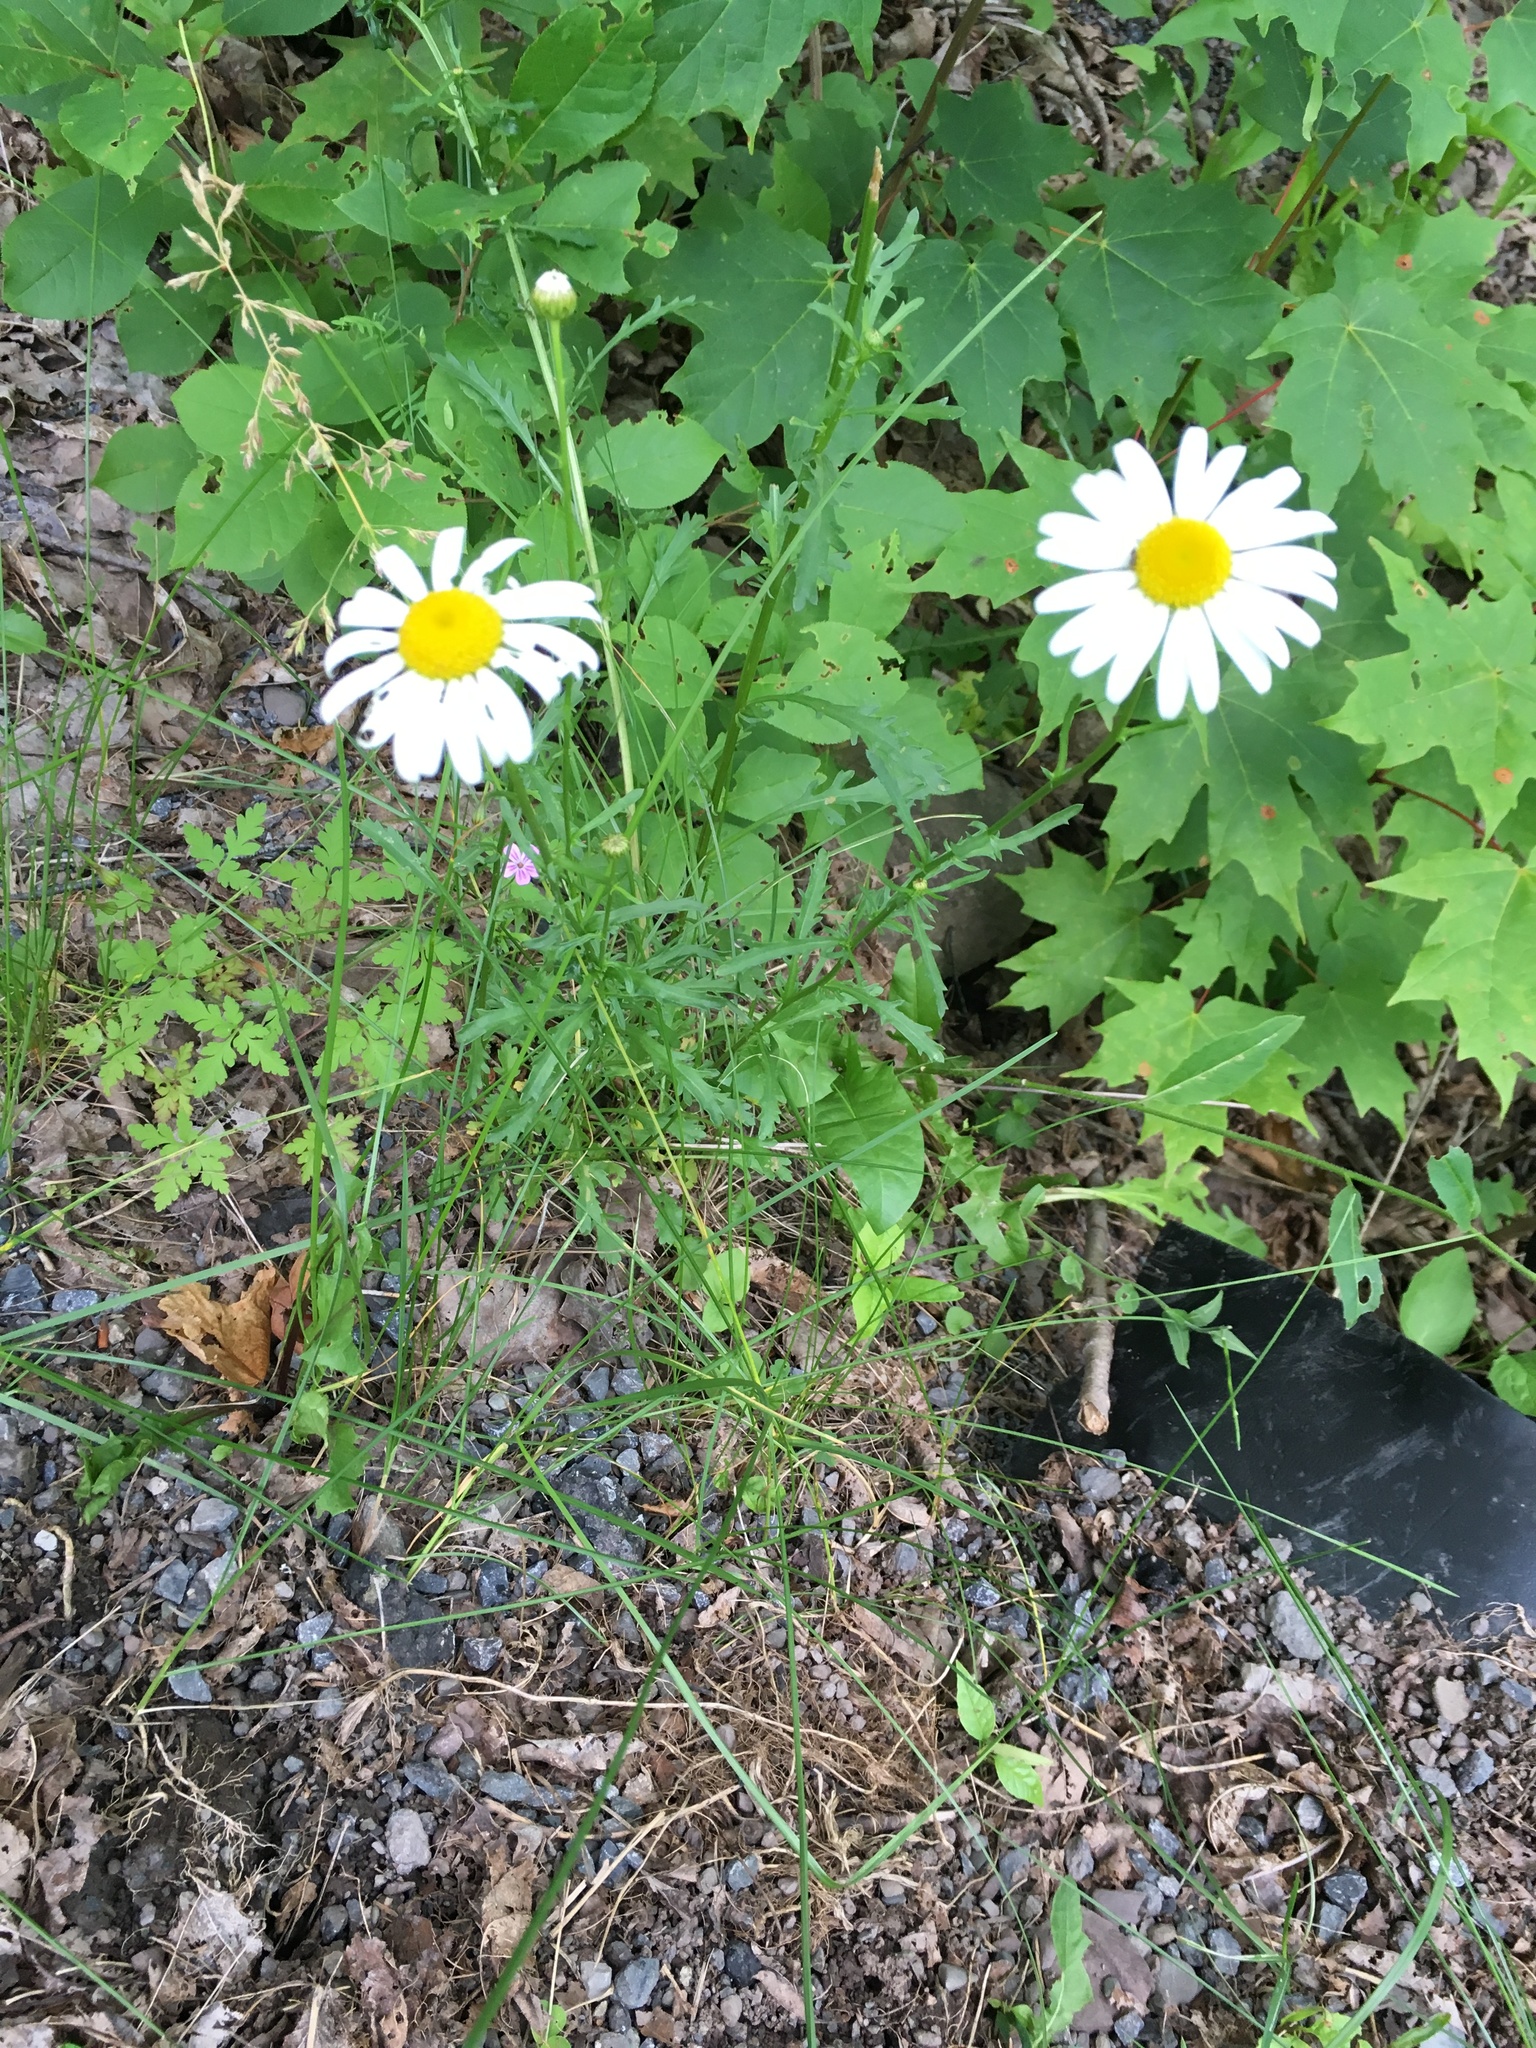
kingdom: Plantae
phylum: Tracheophyta
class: Magnoliopsida
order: Asterales
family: Asteraceae
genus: Leucanthemum
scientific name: Leucanthemum vulgare
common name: Oxeye daisy
